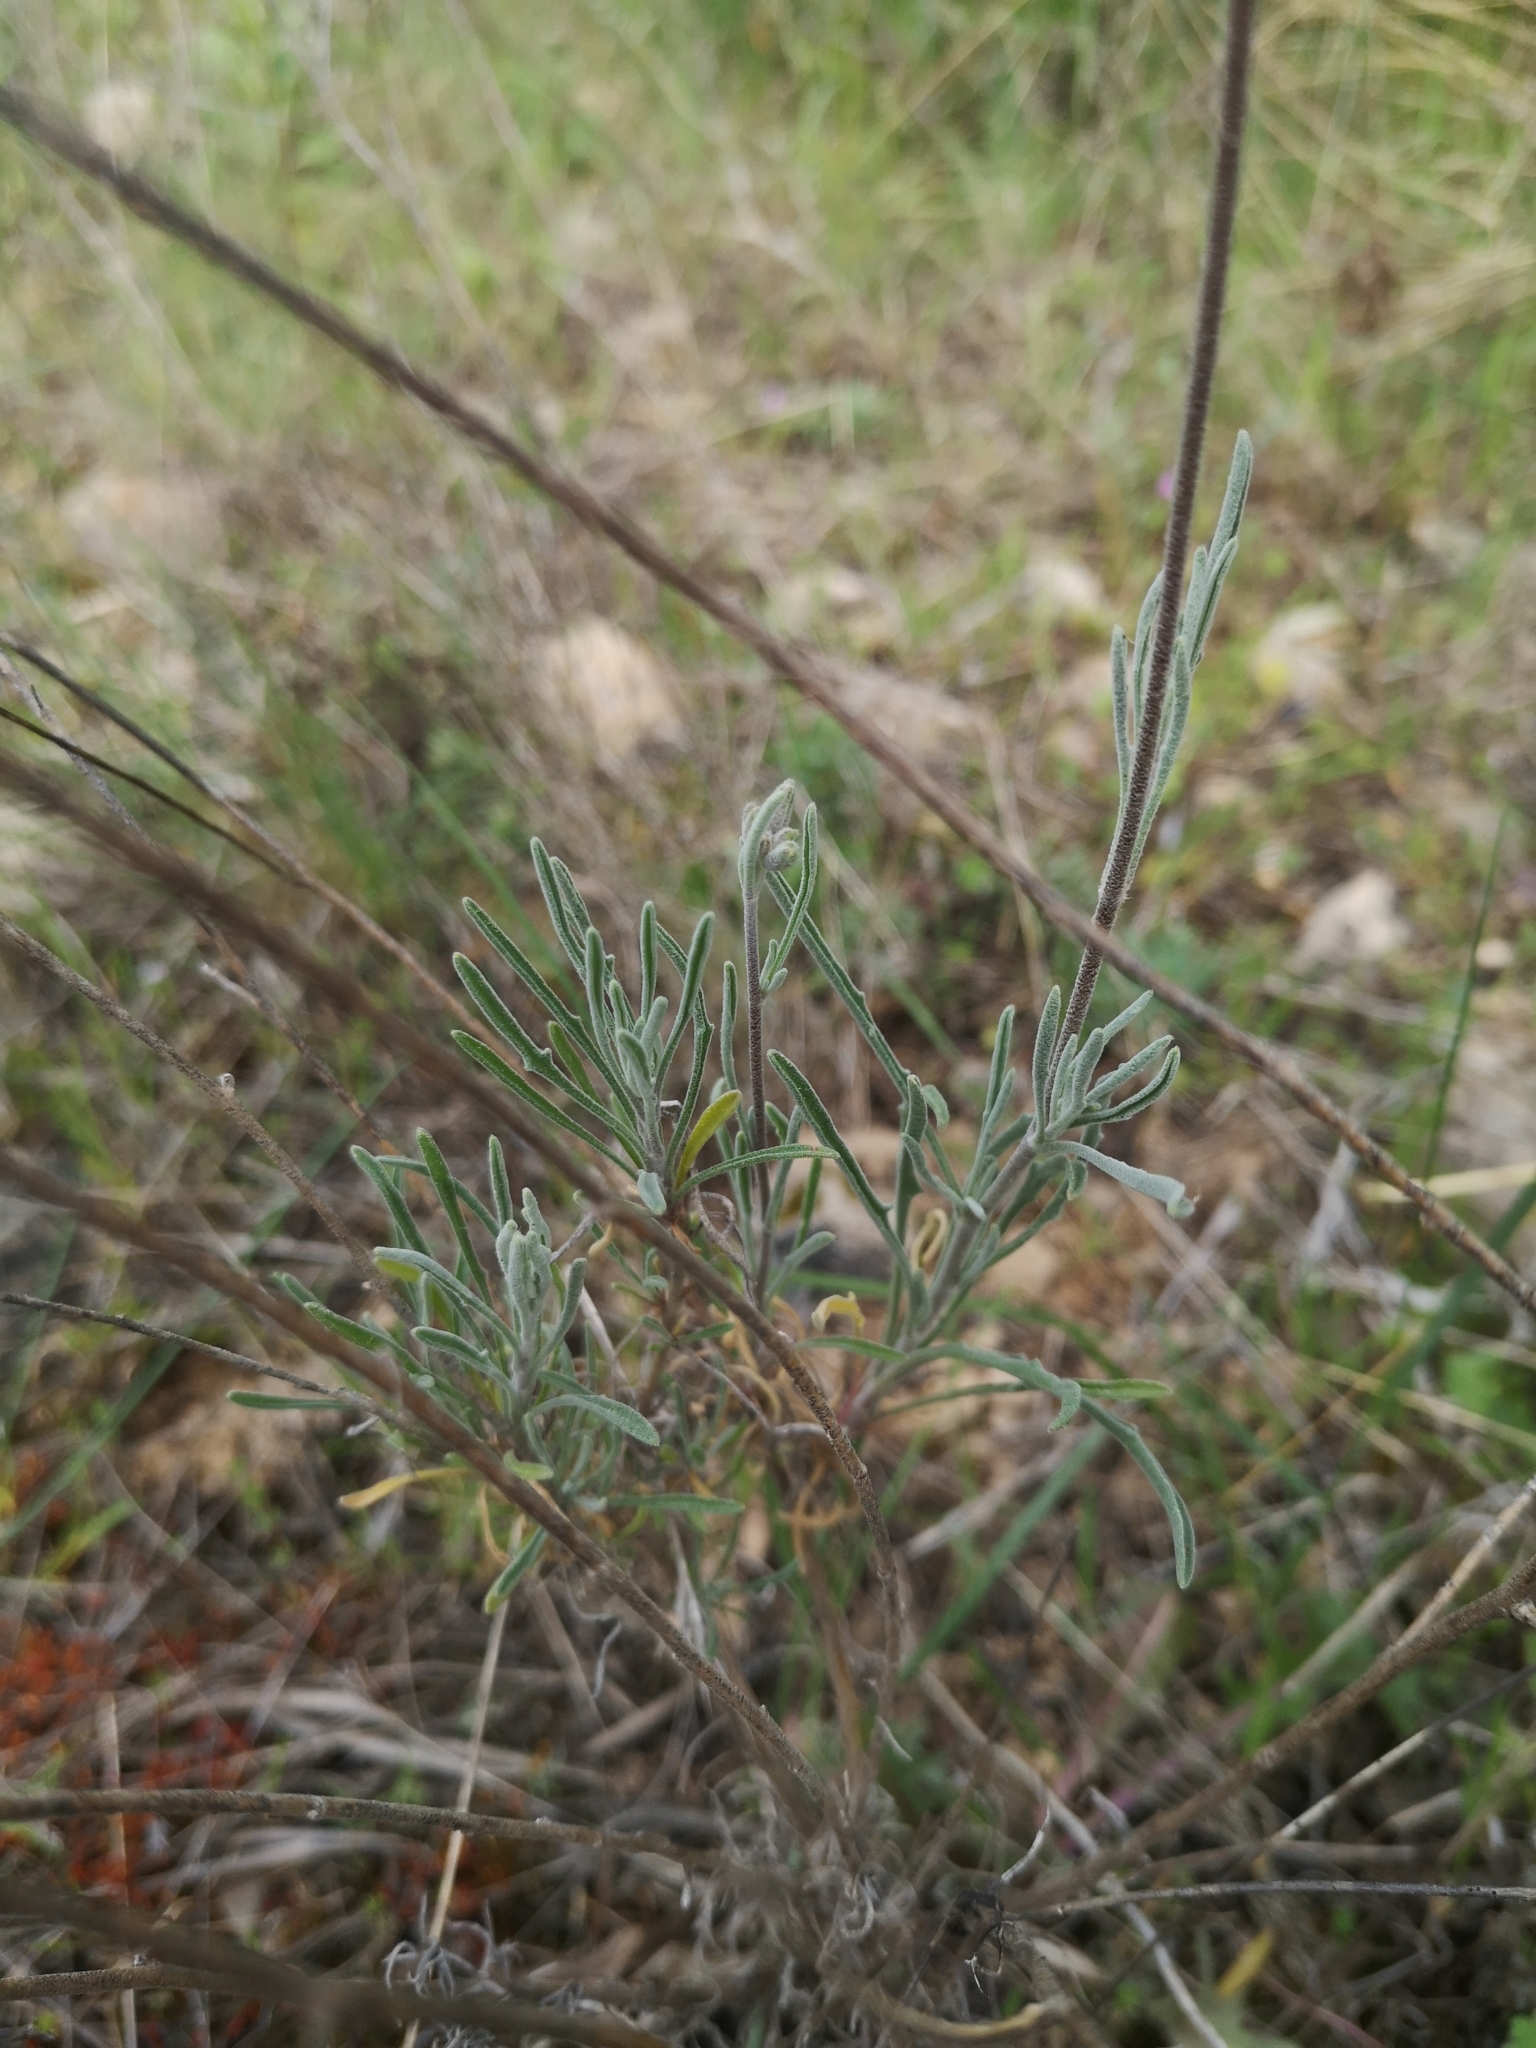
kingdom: Plantae
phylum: Tracheophyta
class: Magnoliopsida
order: Brassicales
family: Brassicaceae
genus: Matthiola
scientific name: Matthiola fruticulosa
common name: Sad stock
